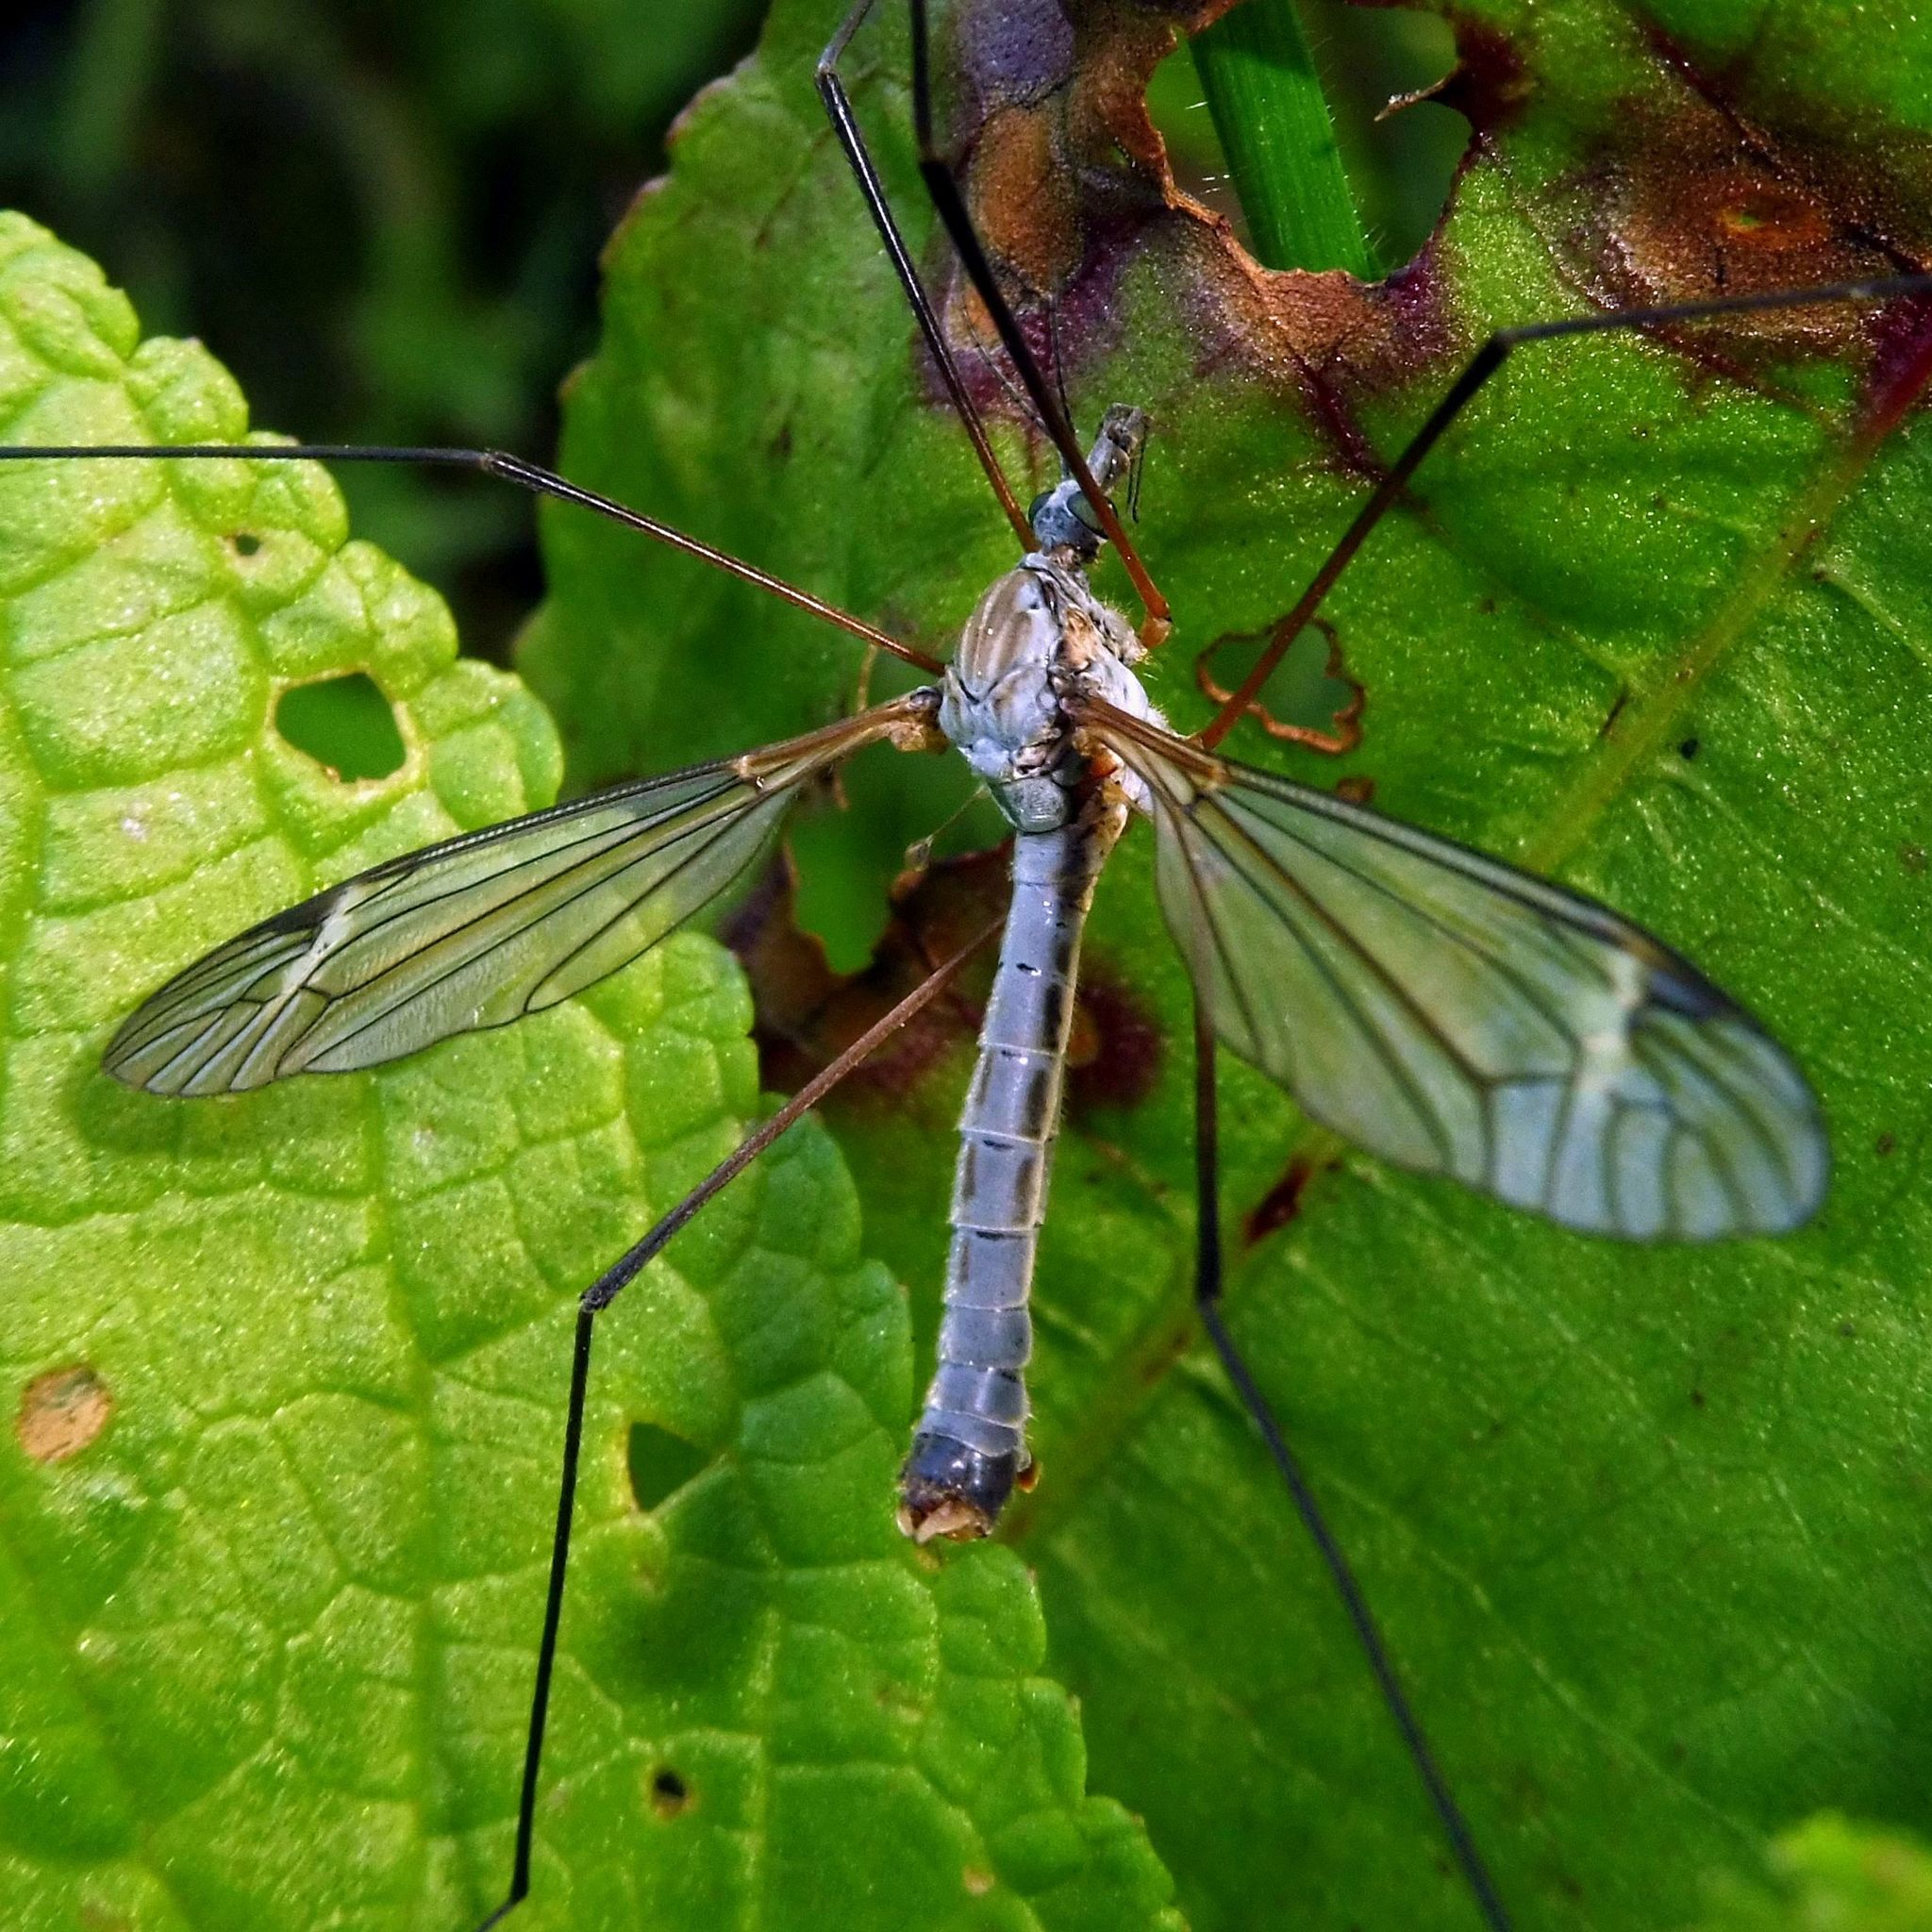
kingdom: Animalia
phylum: Arthropoda
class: Insecta
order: Diptera
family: Tipulidae
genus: Tipula
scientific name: Tipula luna
